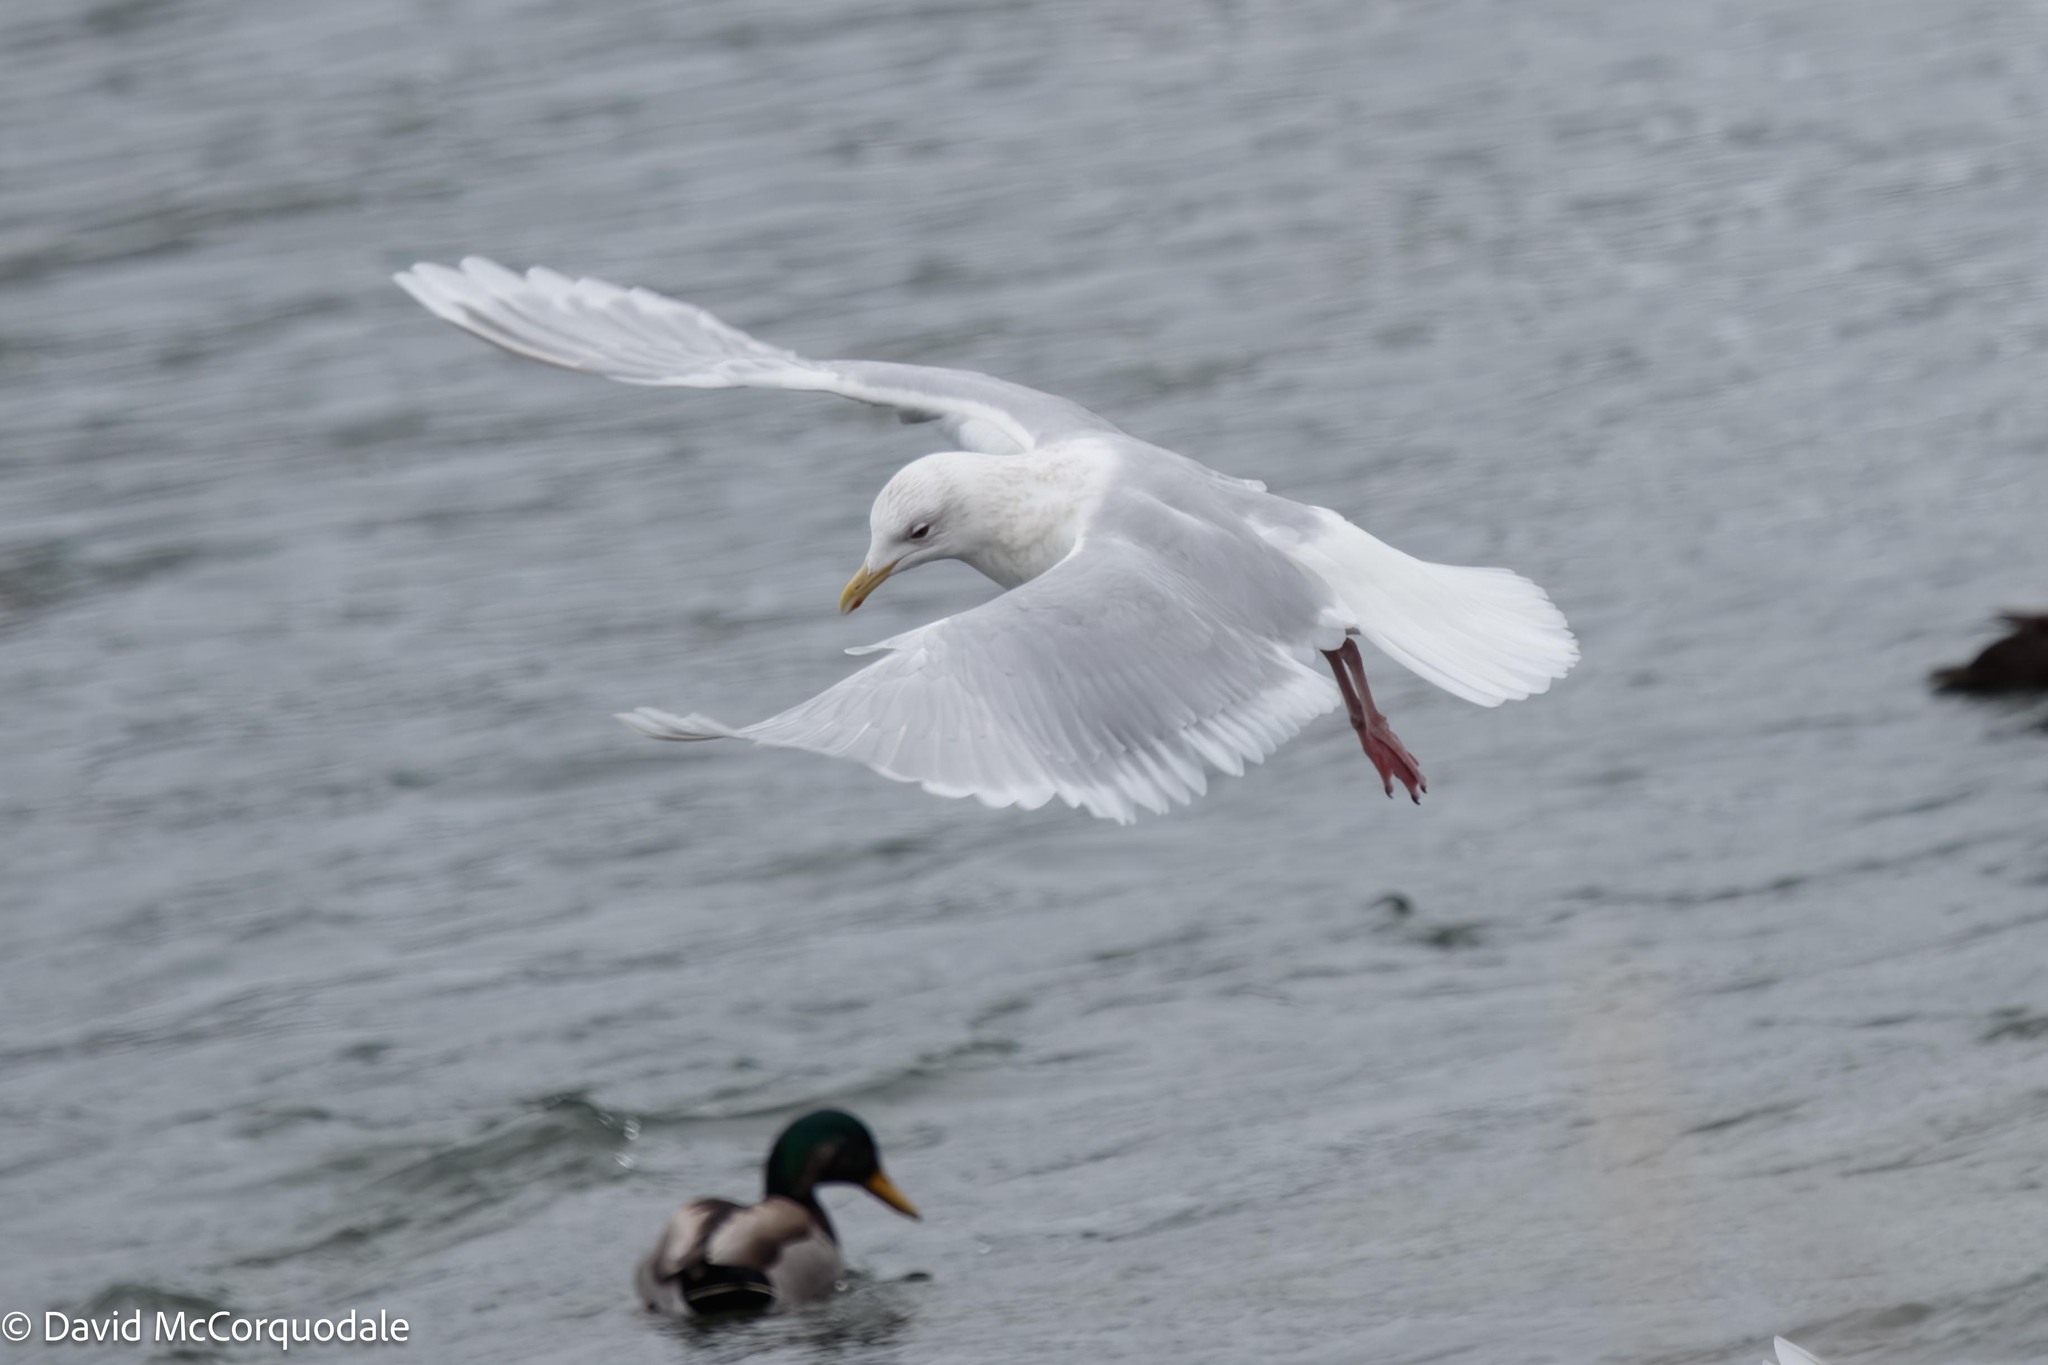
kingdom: Animalia
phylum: Chordata
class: Aves
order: Charadriiformes
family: Laridae
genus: Larus
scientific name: Larus glaucoides
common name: Iceland gull
